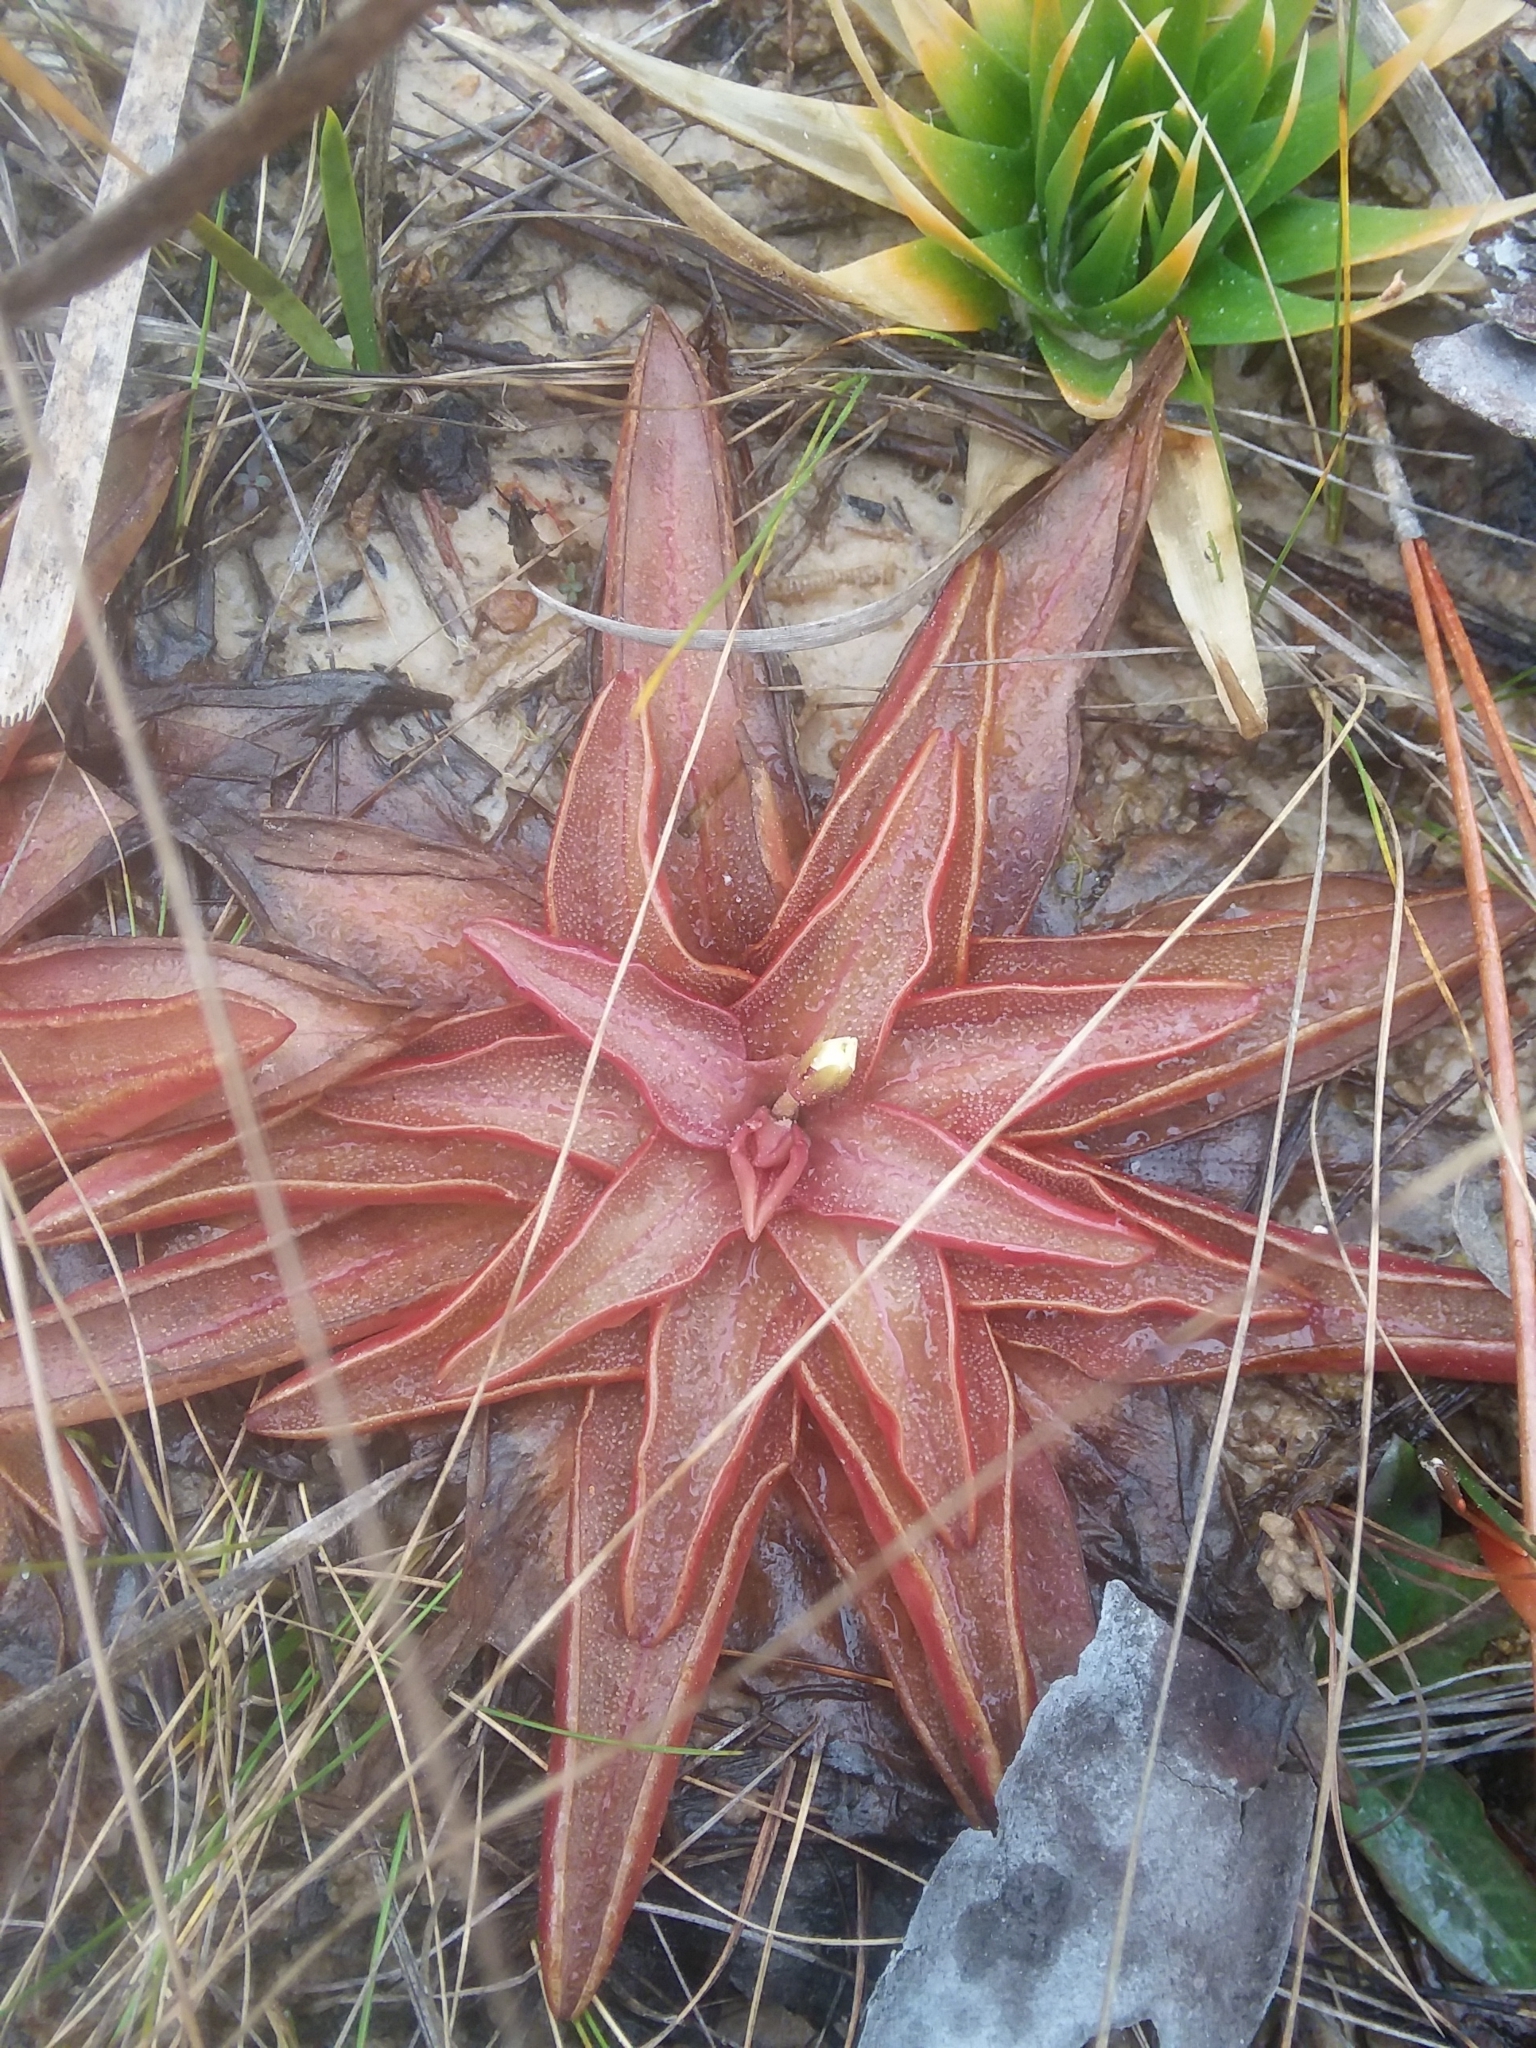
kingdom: Plantae
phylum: Tracheophyta
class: Magnoliopsida
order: Lamiales
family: Lentibulariaceae
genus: Pinguicula
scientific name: Pinguicula planifolia
